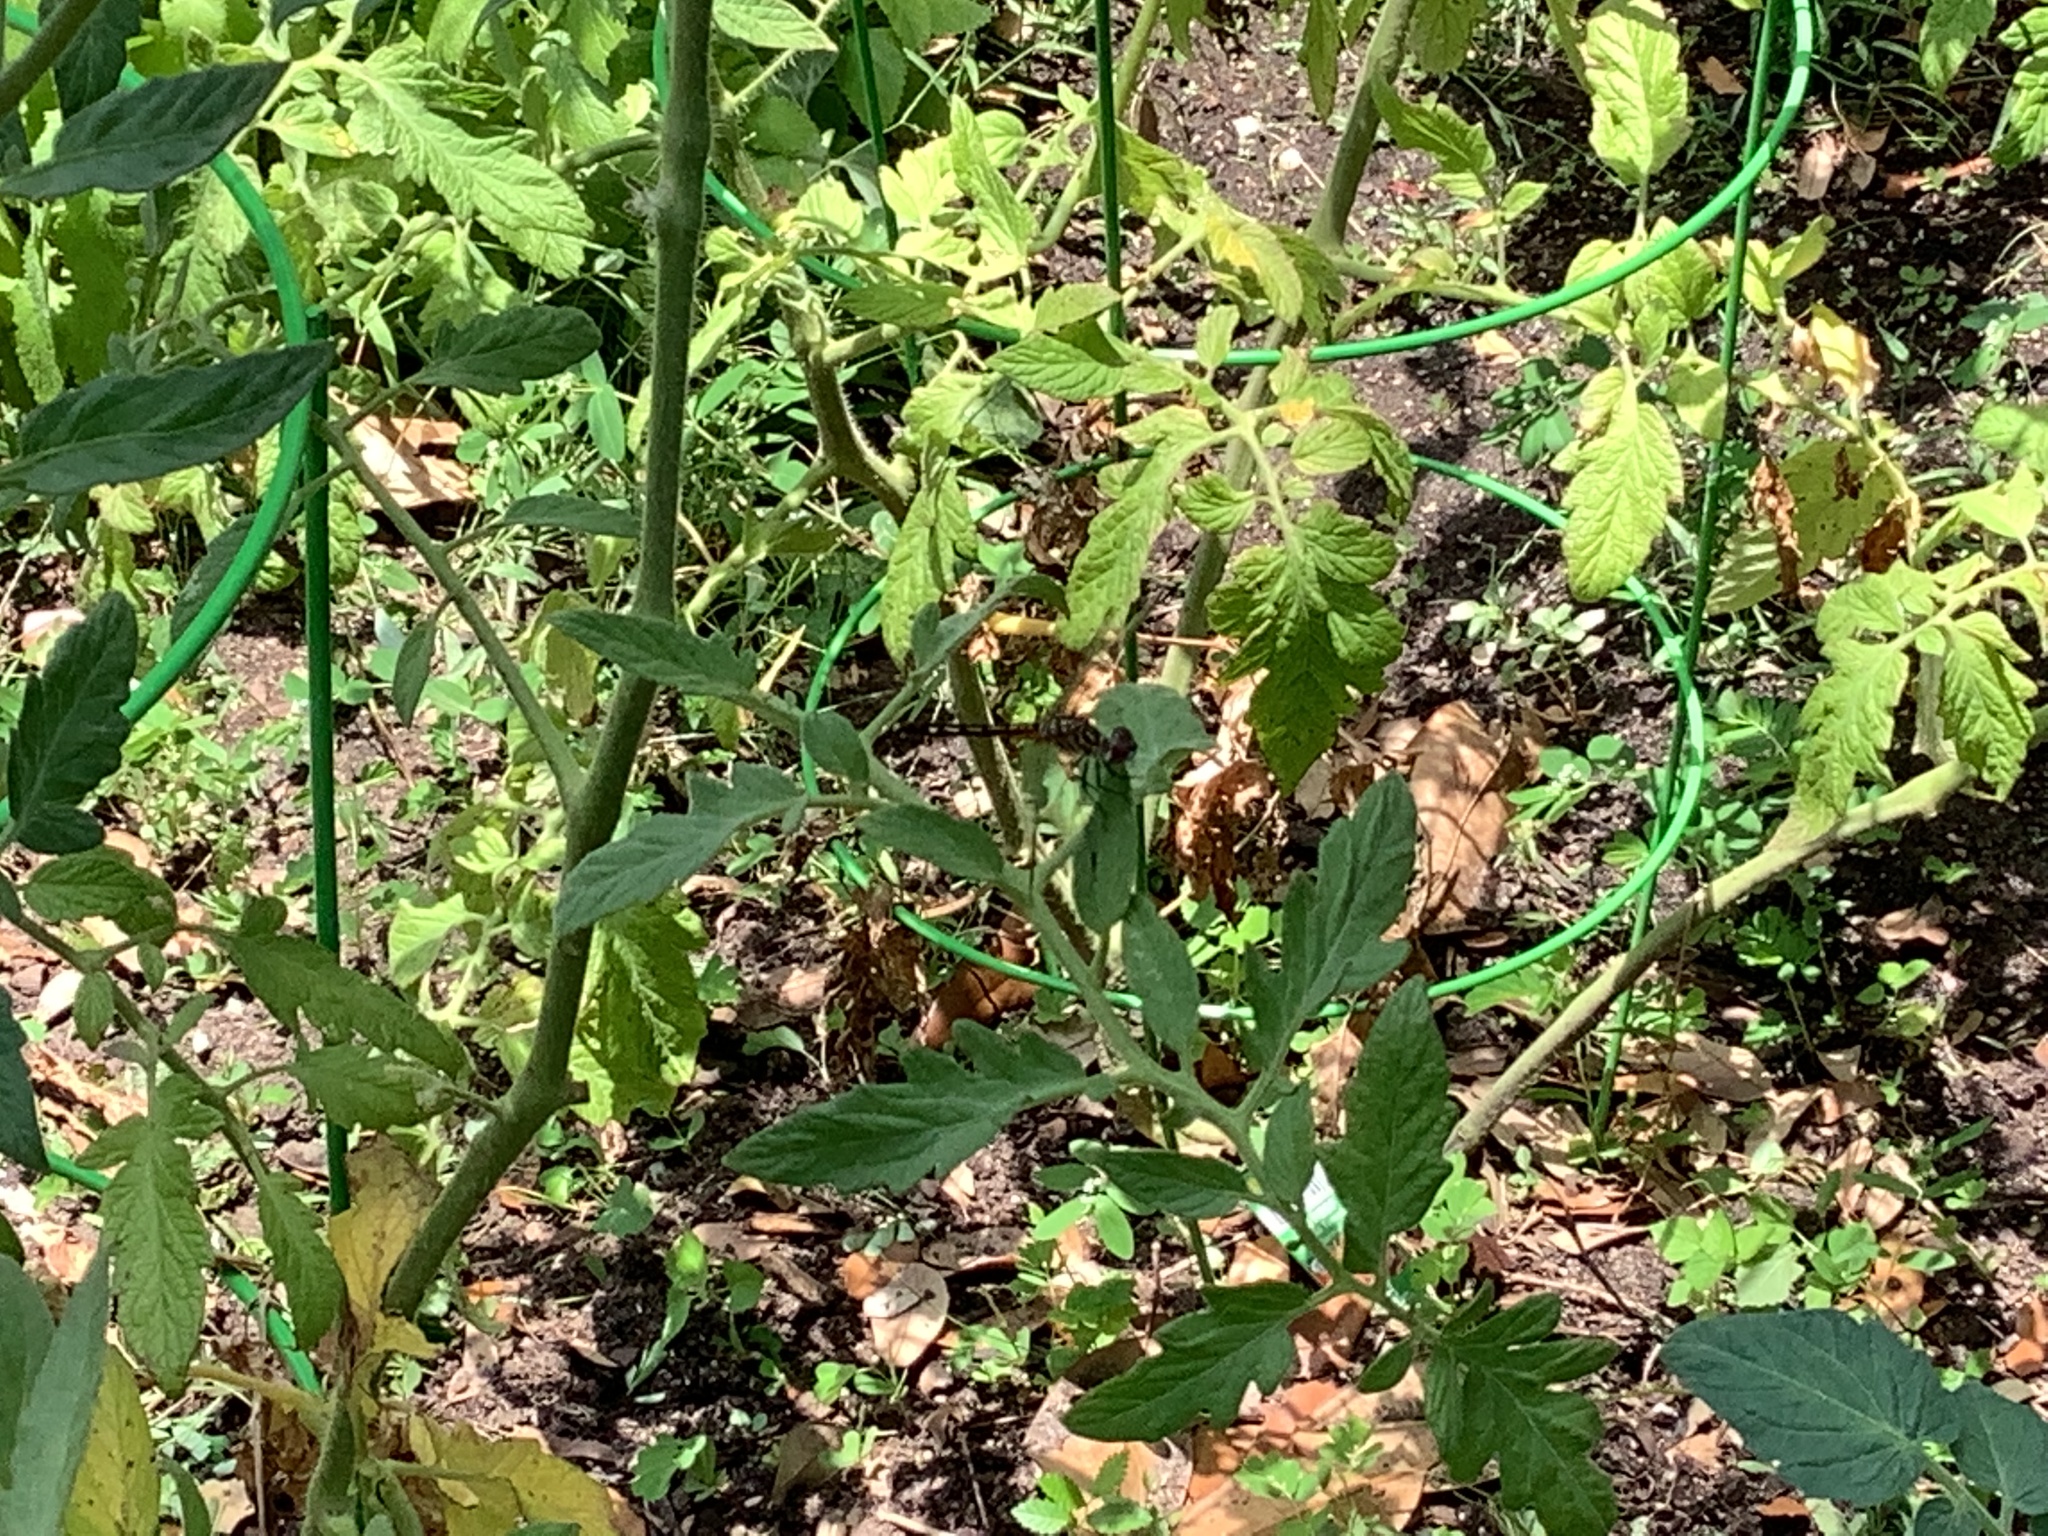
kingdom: Animalia
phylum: Arthropoda
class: Insecta
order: Odonata
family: Libellulidae
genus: Pachydiplax
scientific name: Pachydiplax longipennis
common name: Blue dasher
